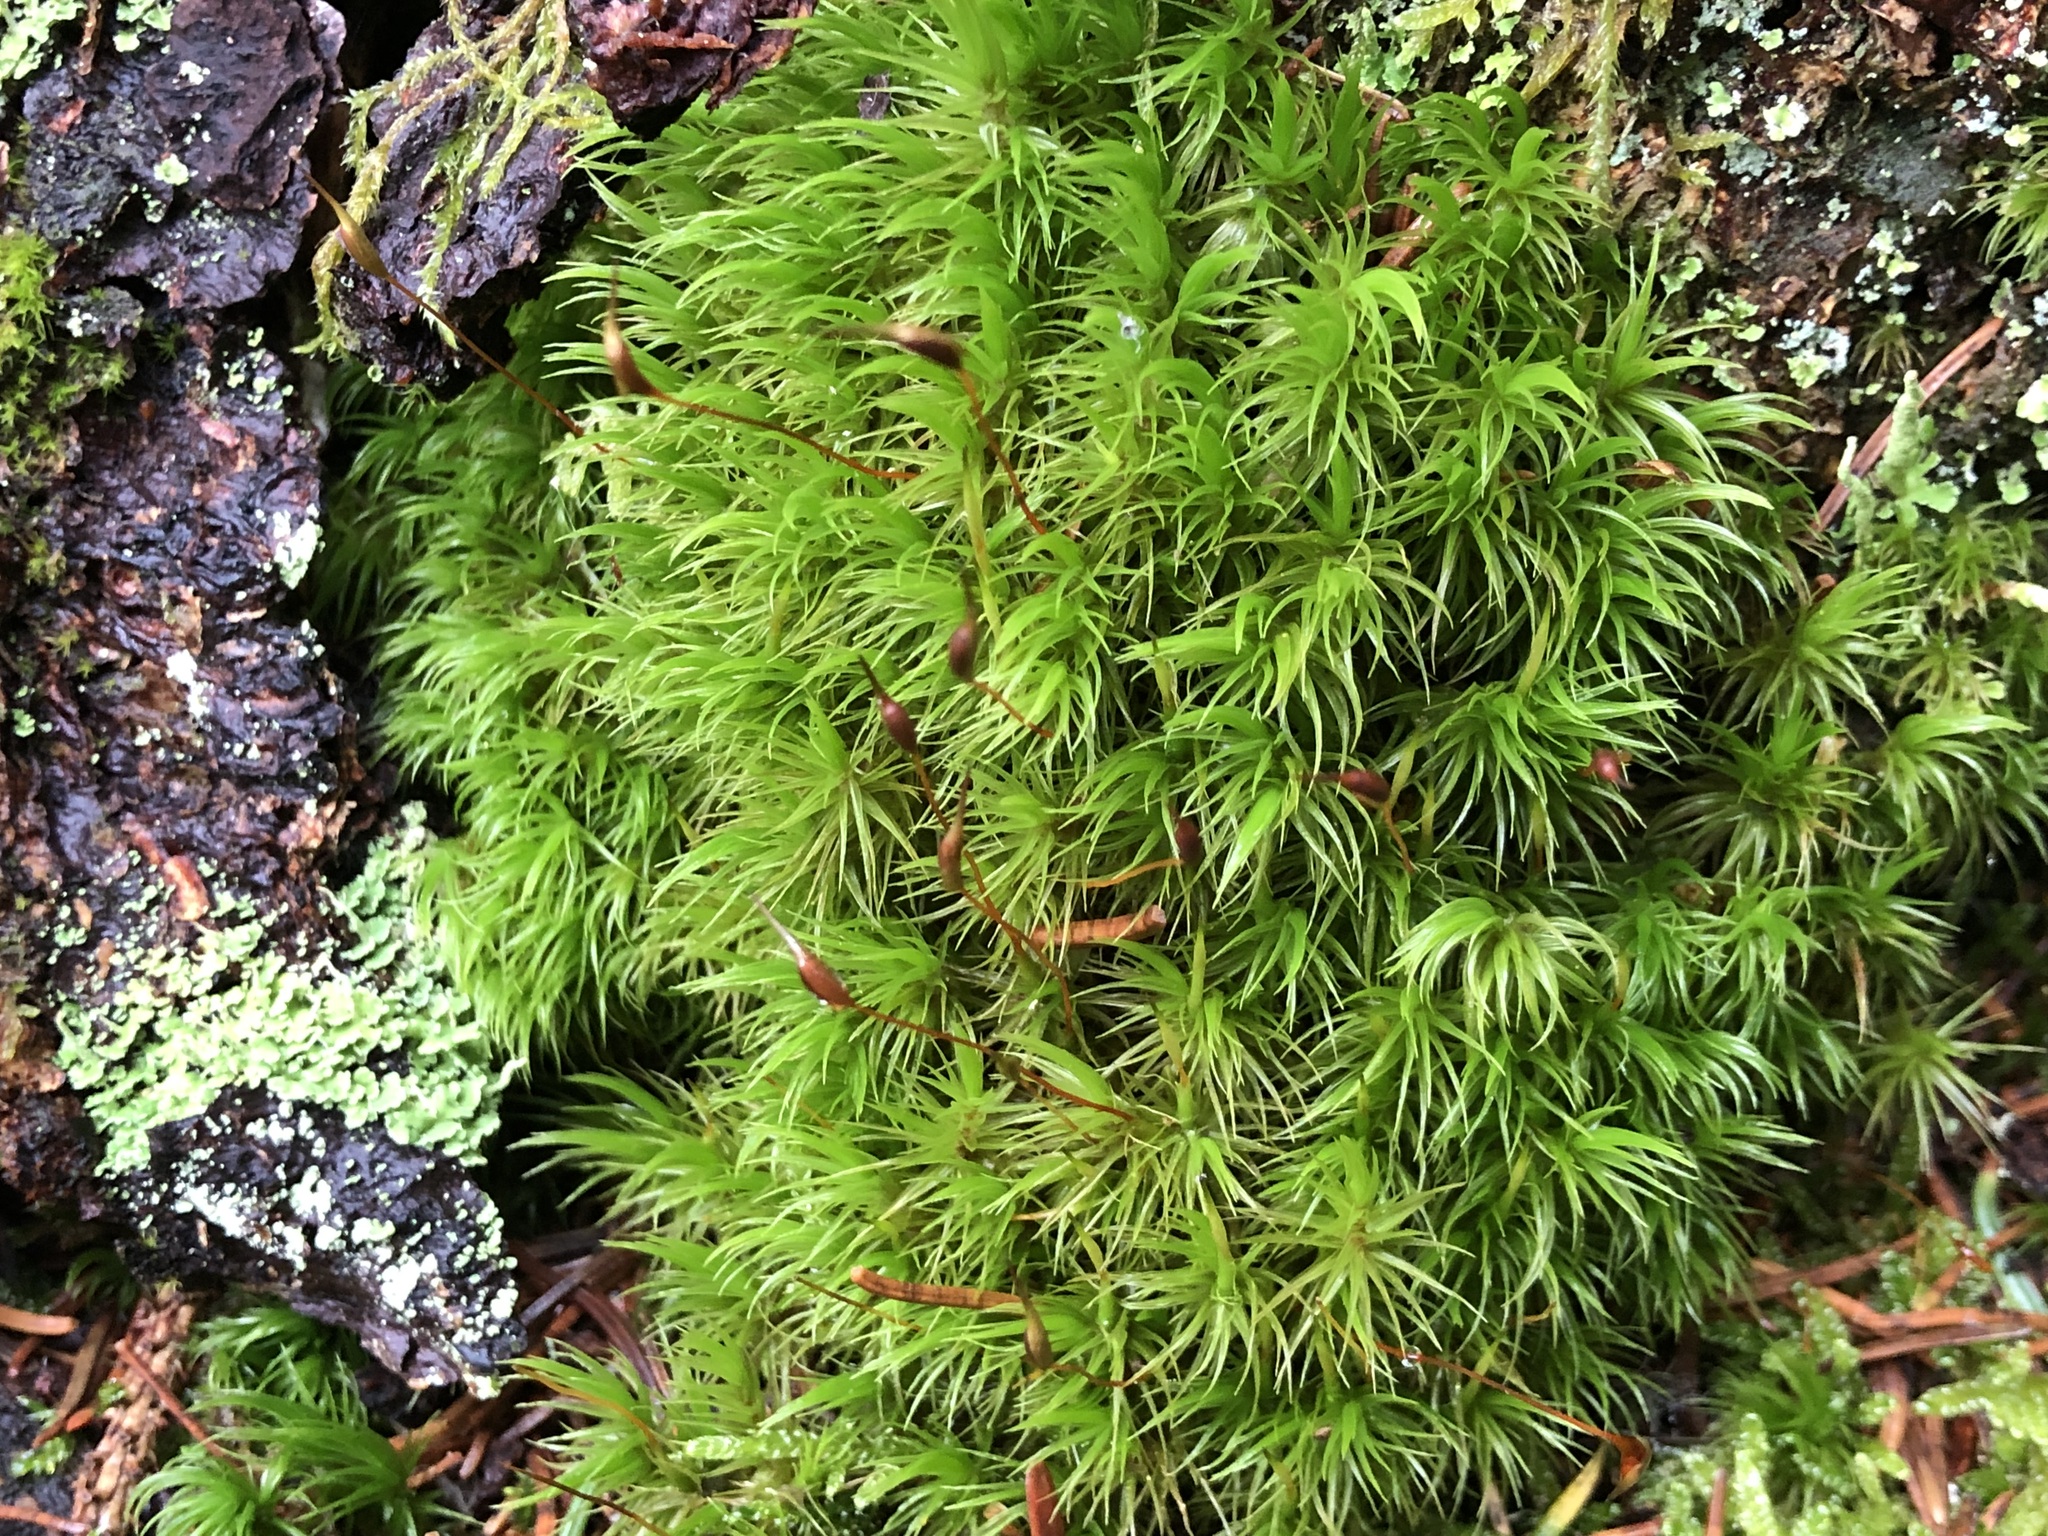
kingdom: Plantae
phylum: Bryophyta
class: Bryopsida
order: Dicranales
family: Dicranaceae
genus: Dicranum
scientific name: Dicranum scoparium
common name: Broom fork-moss
